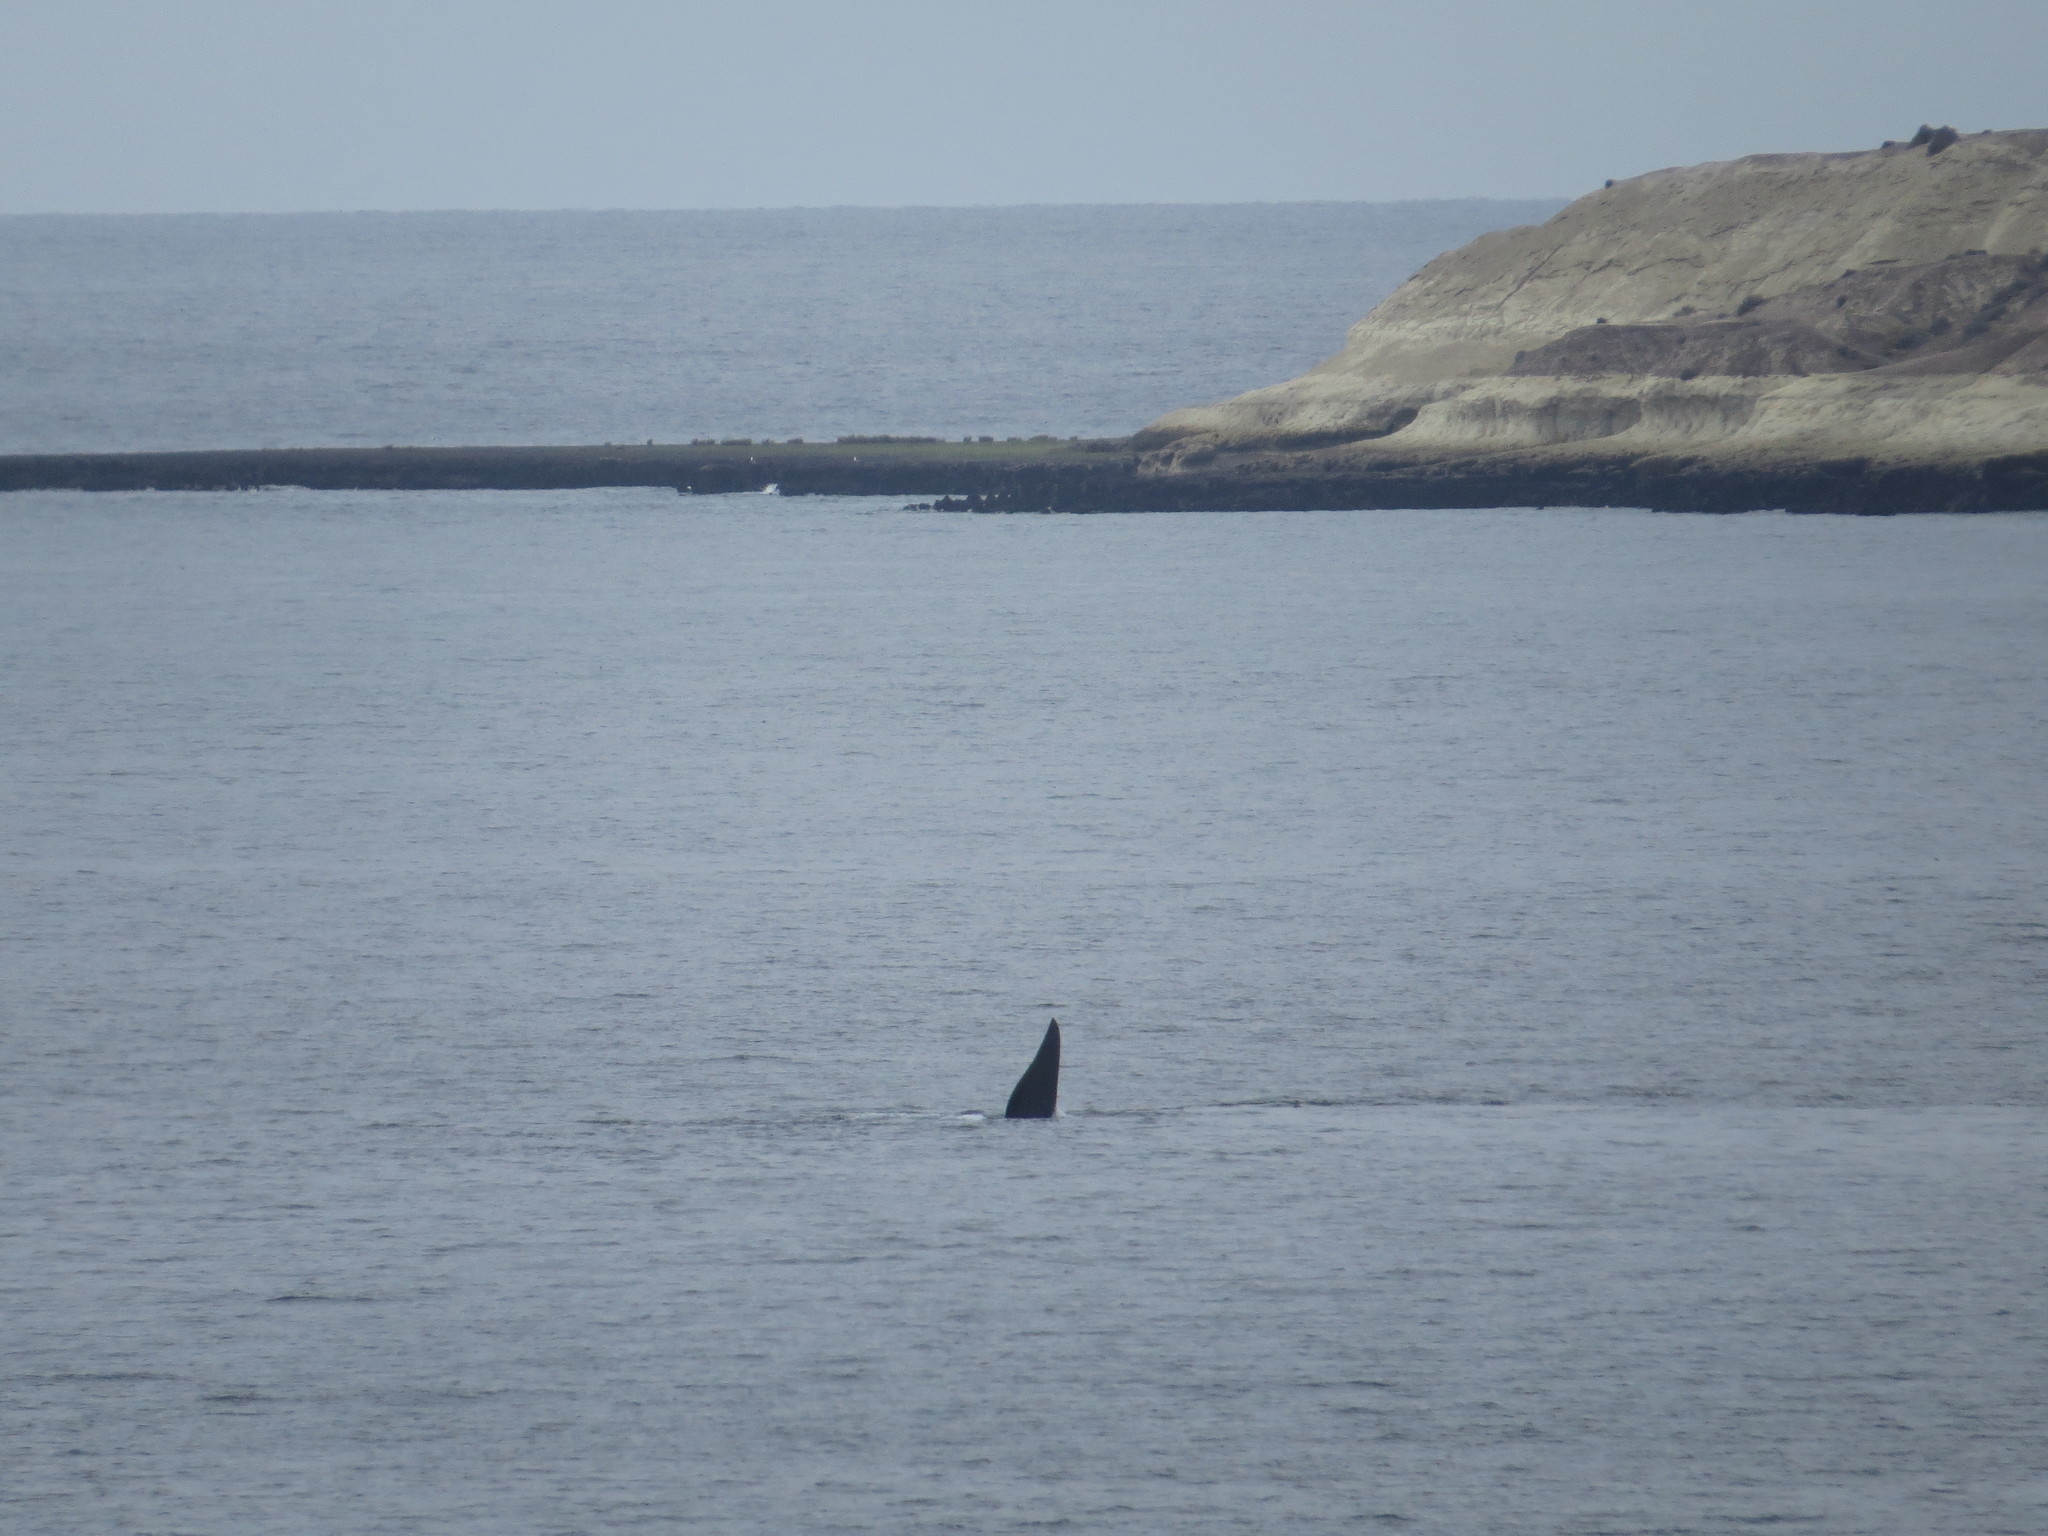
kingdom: Animalia
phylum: Chordata
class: Mammalia
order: Cetacea
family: Balaenidae
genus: Eubalaena
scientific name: Eubalaena australis
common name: Southern right whale
